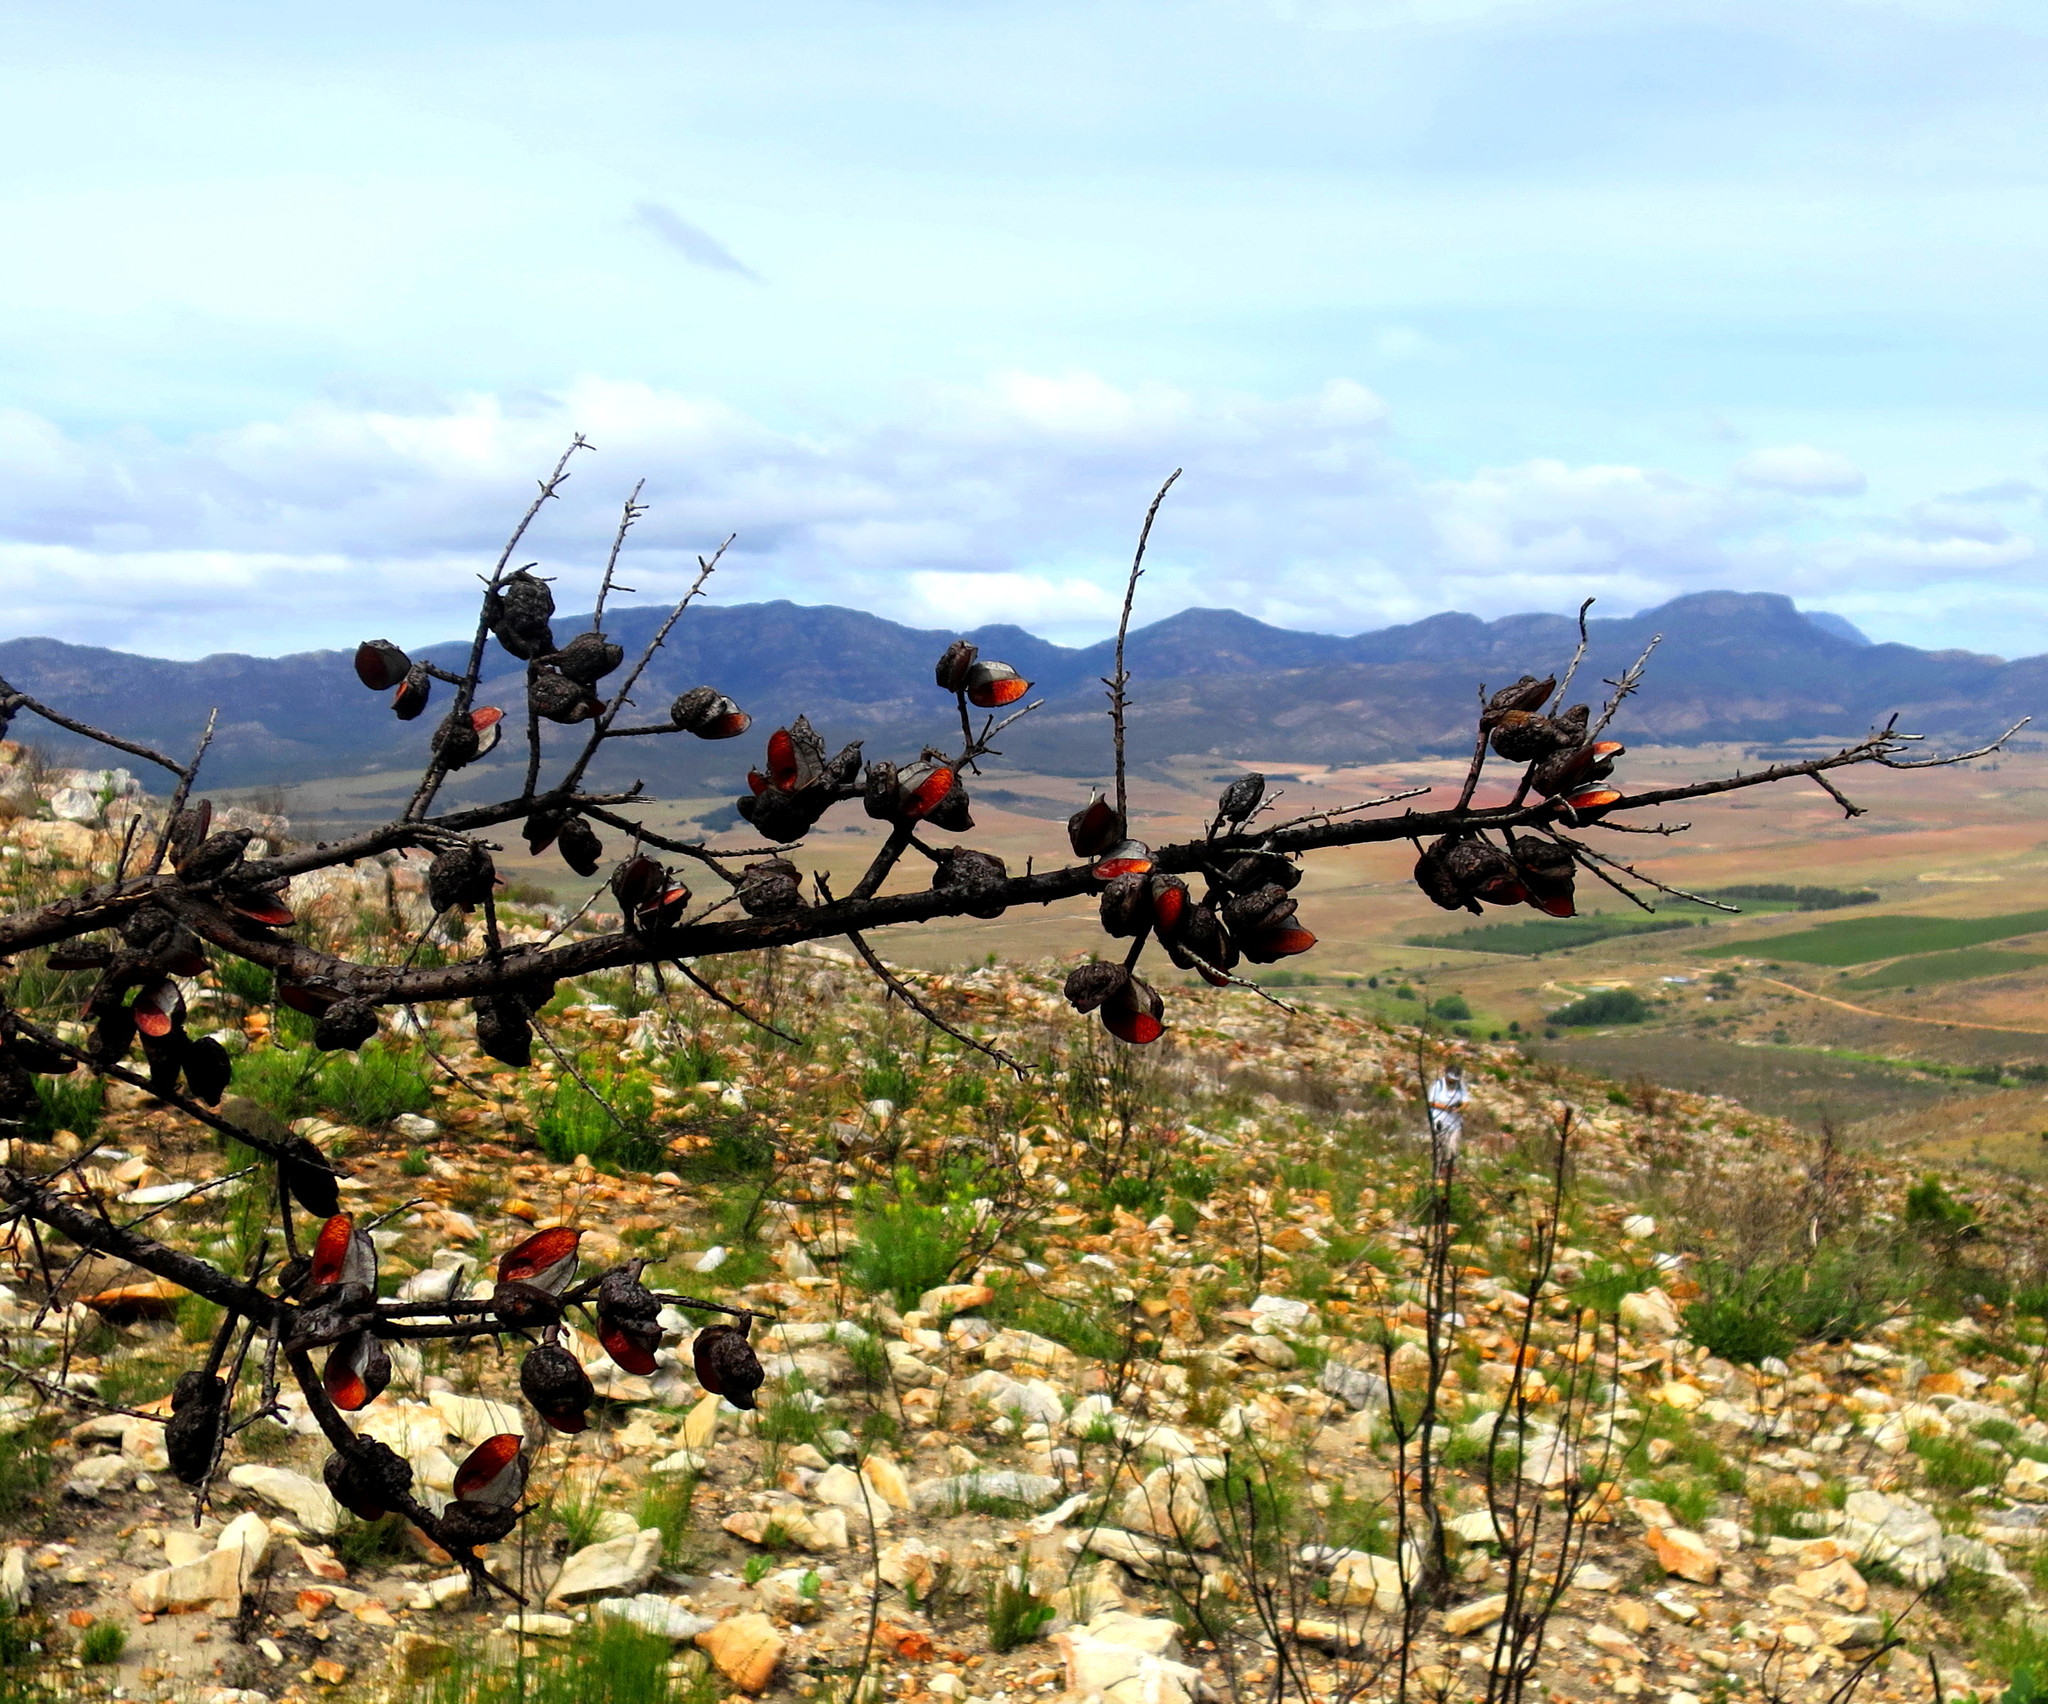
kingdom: Plantae
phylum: Tracheophyta
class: Magnoliopsida
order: Proteales
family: Proteaceae
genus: Hakea
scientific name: Hakea sericea
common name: Needle bush
